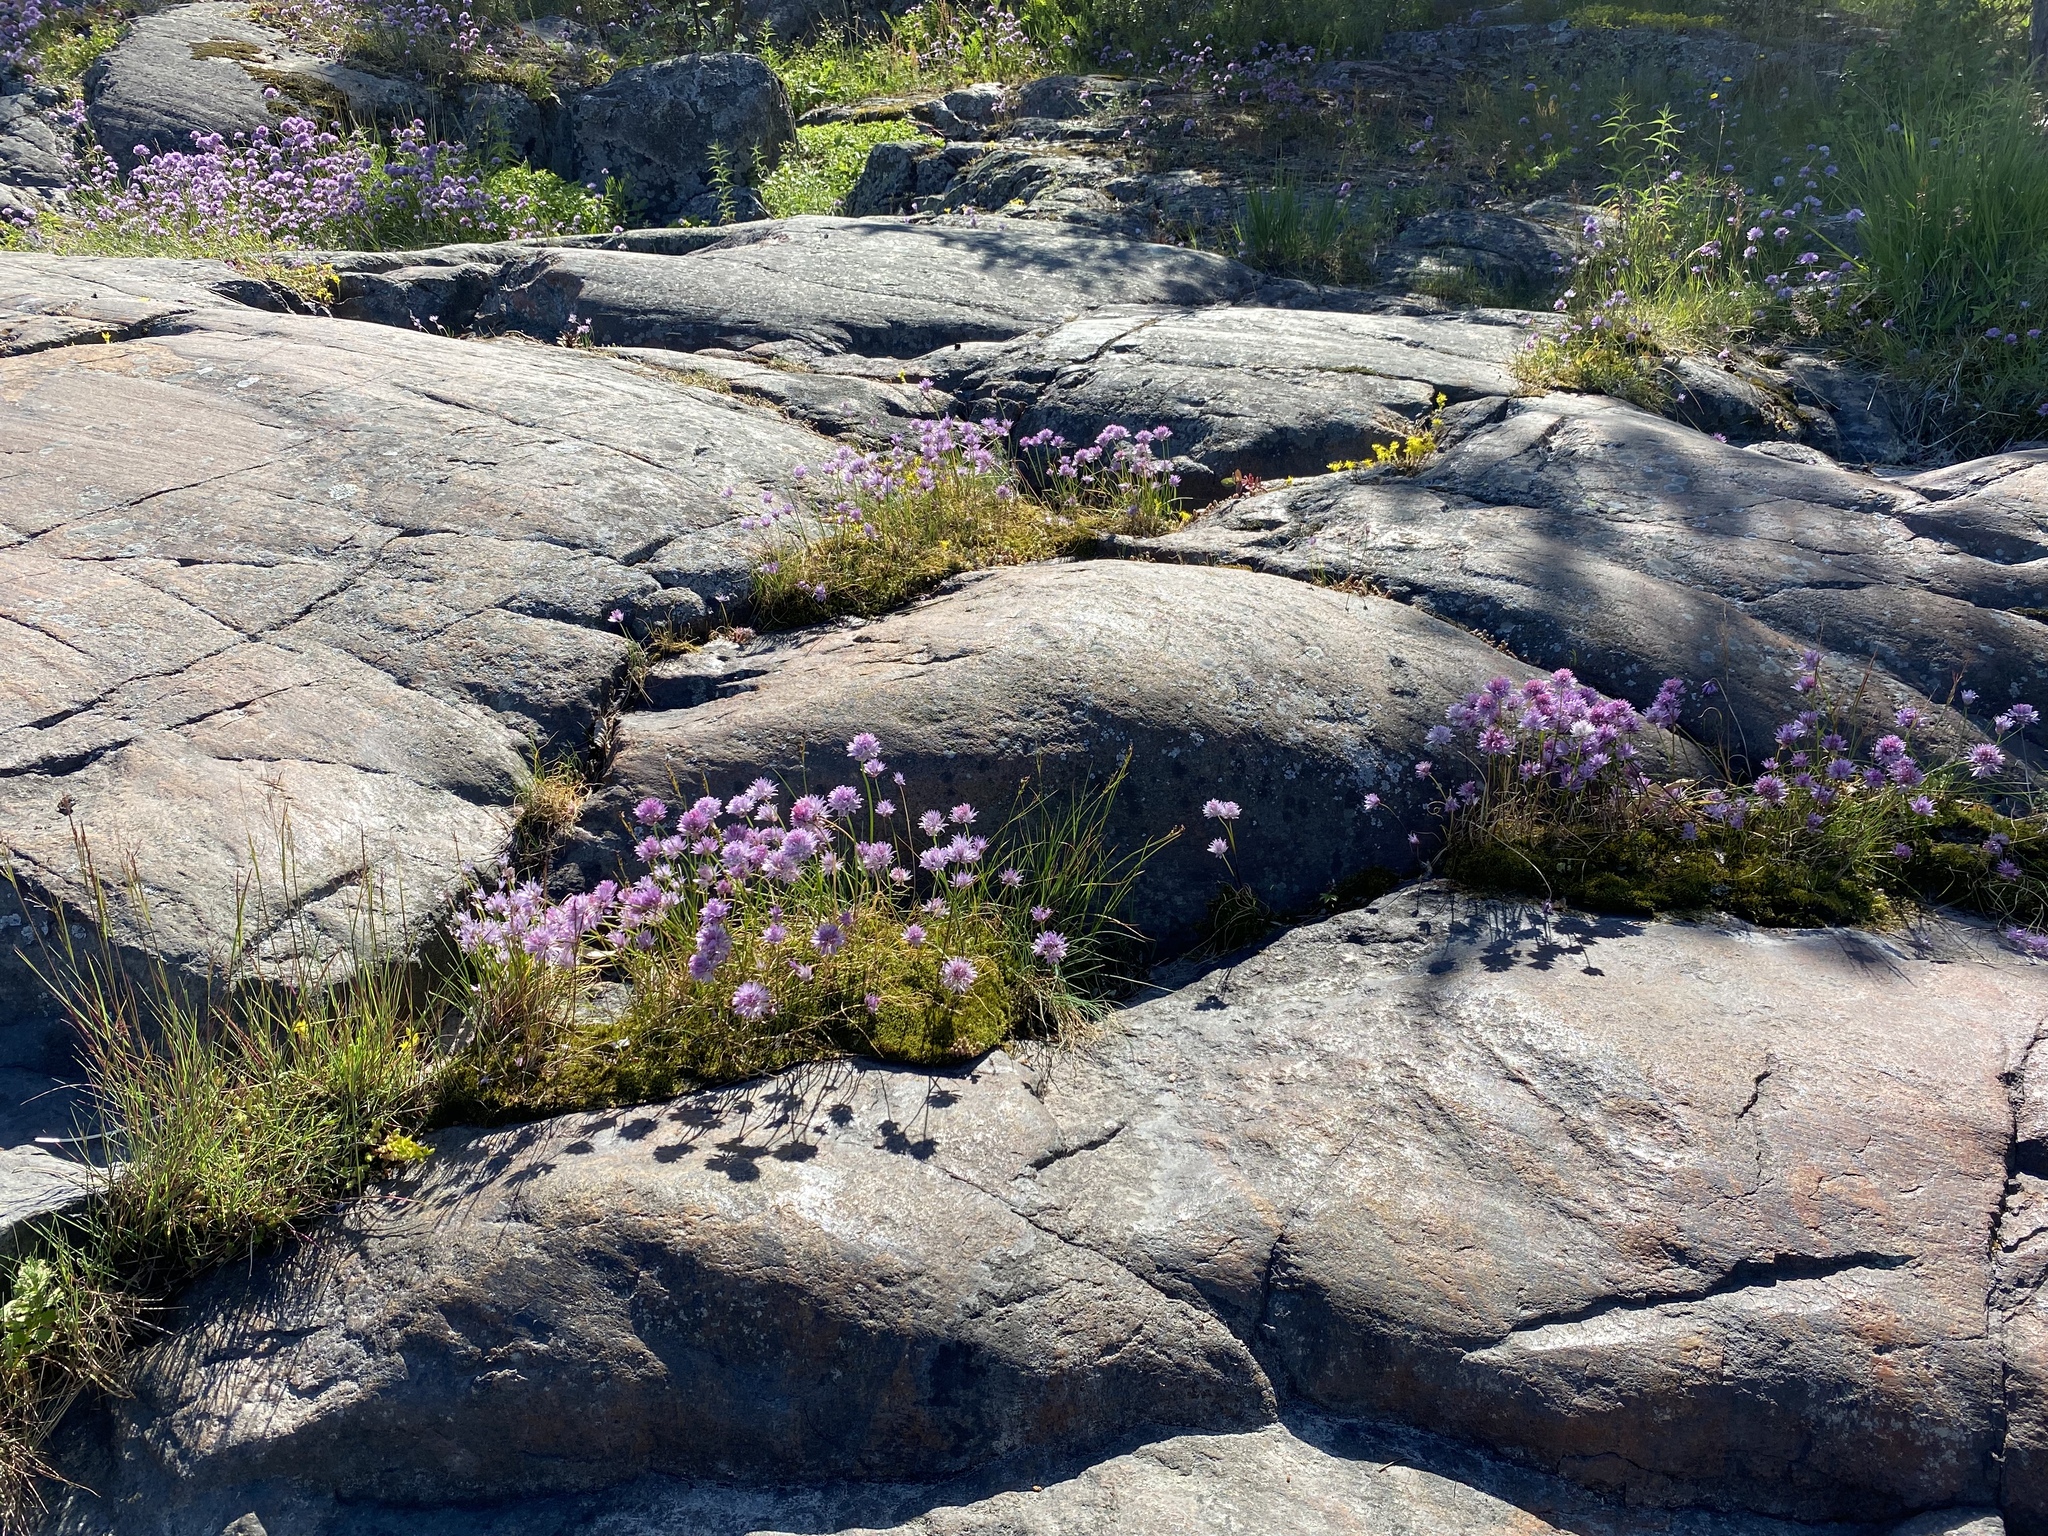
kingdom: Plantae
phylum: Tracheophyta
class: Liliopsida
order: Asparagales
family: Amaryllidaceae
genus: Allium
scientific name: Allium schoenoprasum
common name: Chives
